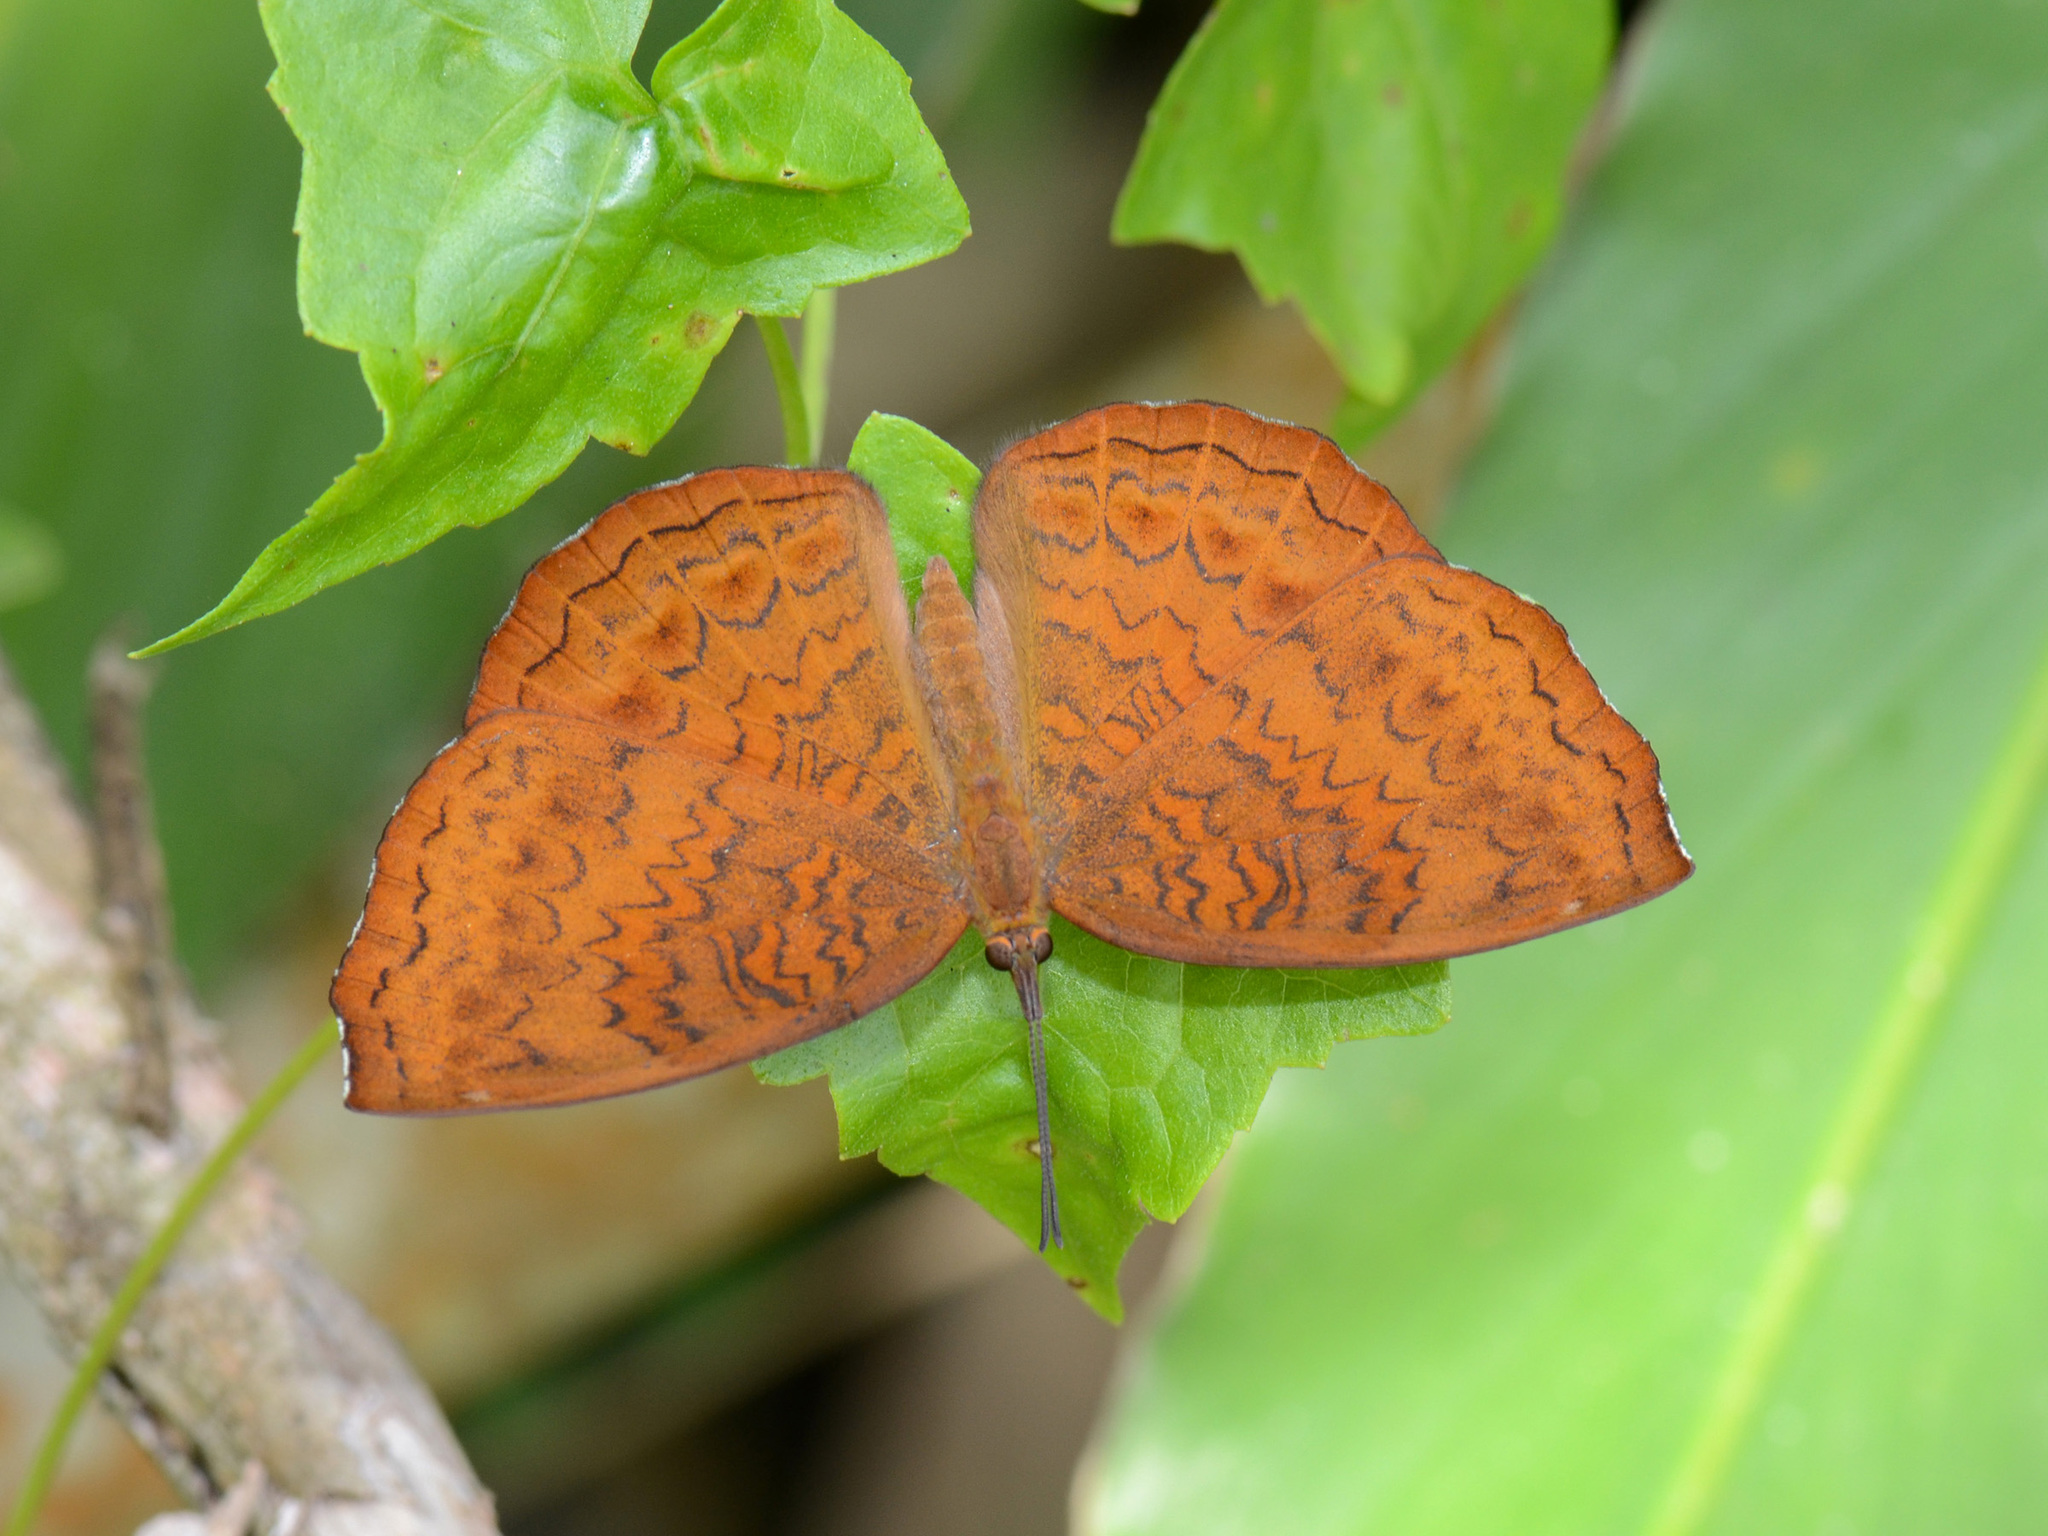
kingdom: Animalia
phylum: Arthropoda
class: Insecta
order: Lepidoptera
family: Nymphalidae
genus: Ariadne
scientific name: Ariadne merione
